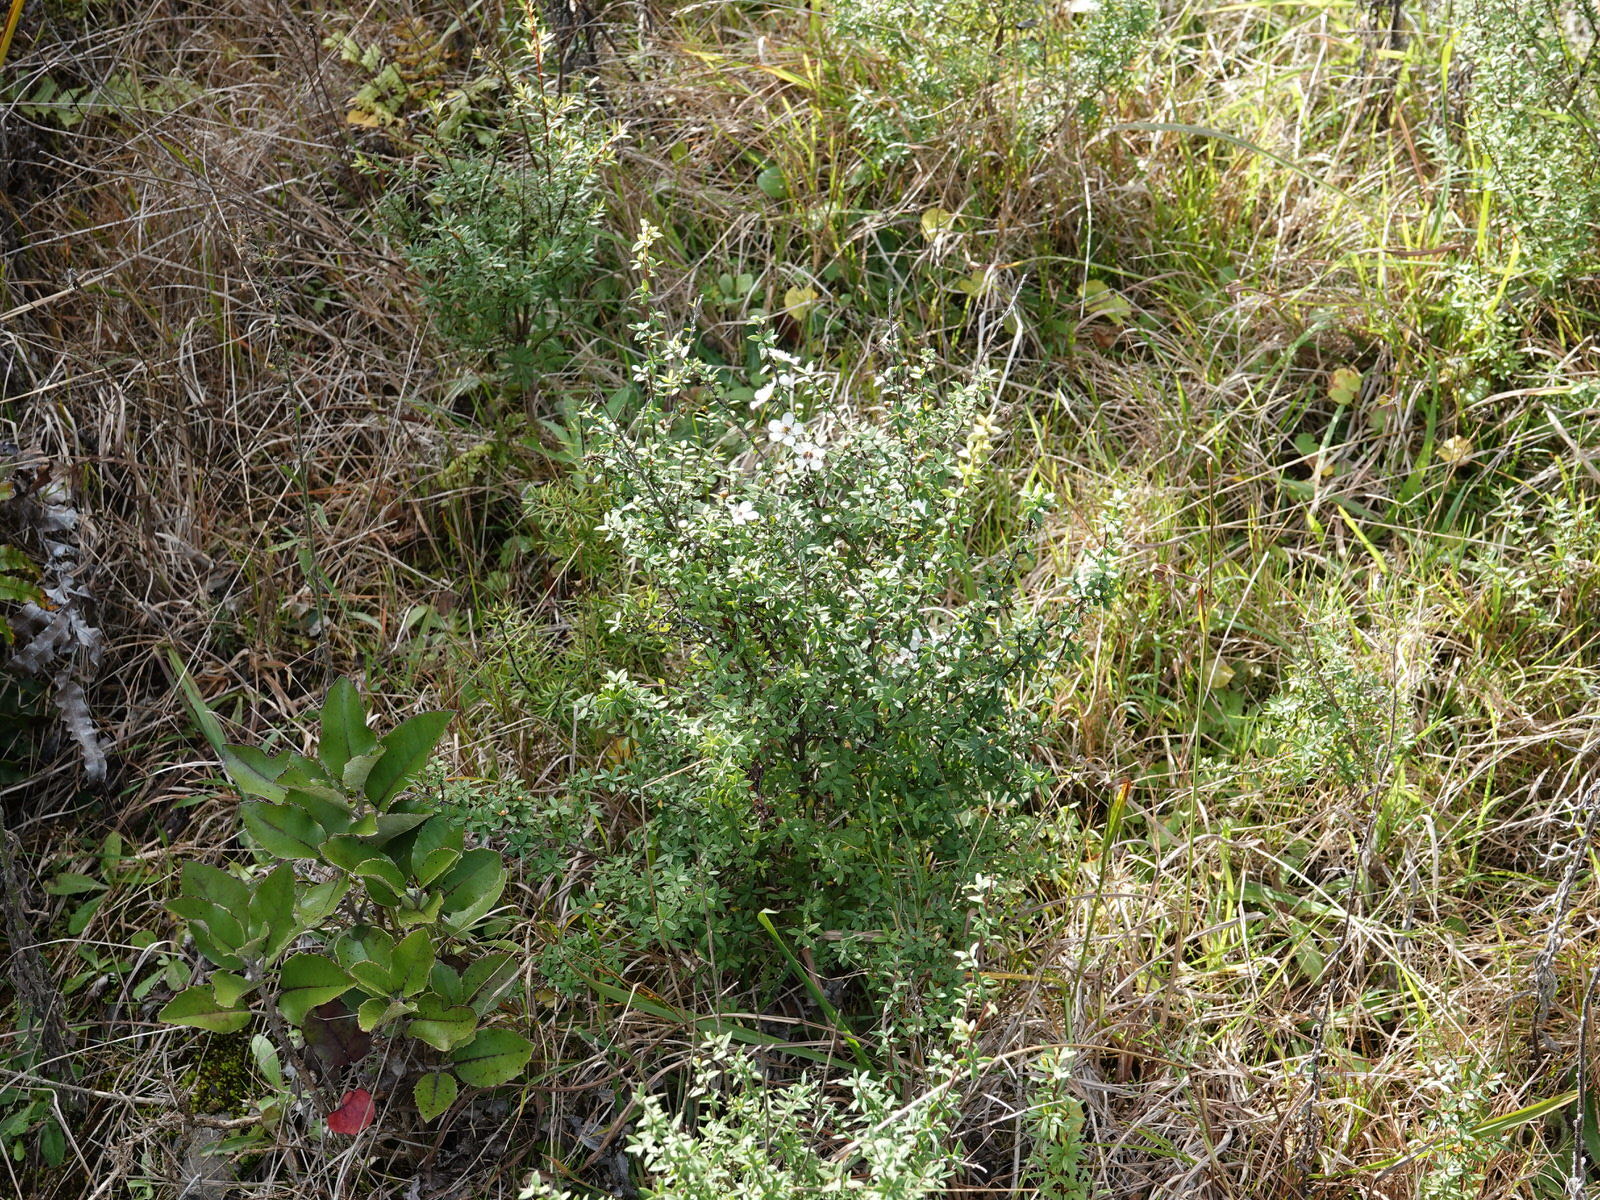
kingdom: Plantae
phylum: Tracheophyta
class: Magnoliopsida
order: Myrtales
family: Myrtaceae
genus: Leptospermum
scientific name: Leptospermum scoparium
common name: Broom tea-tree
